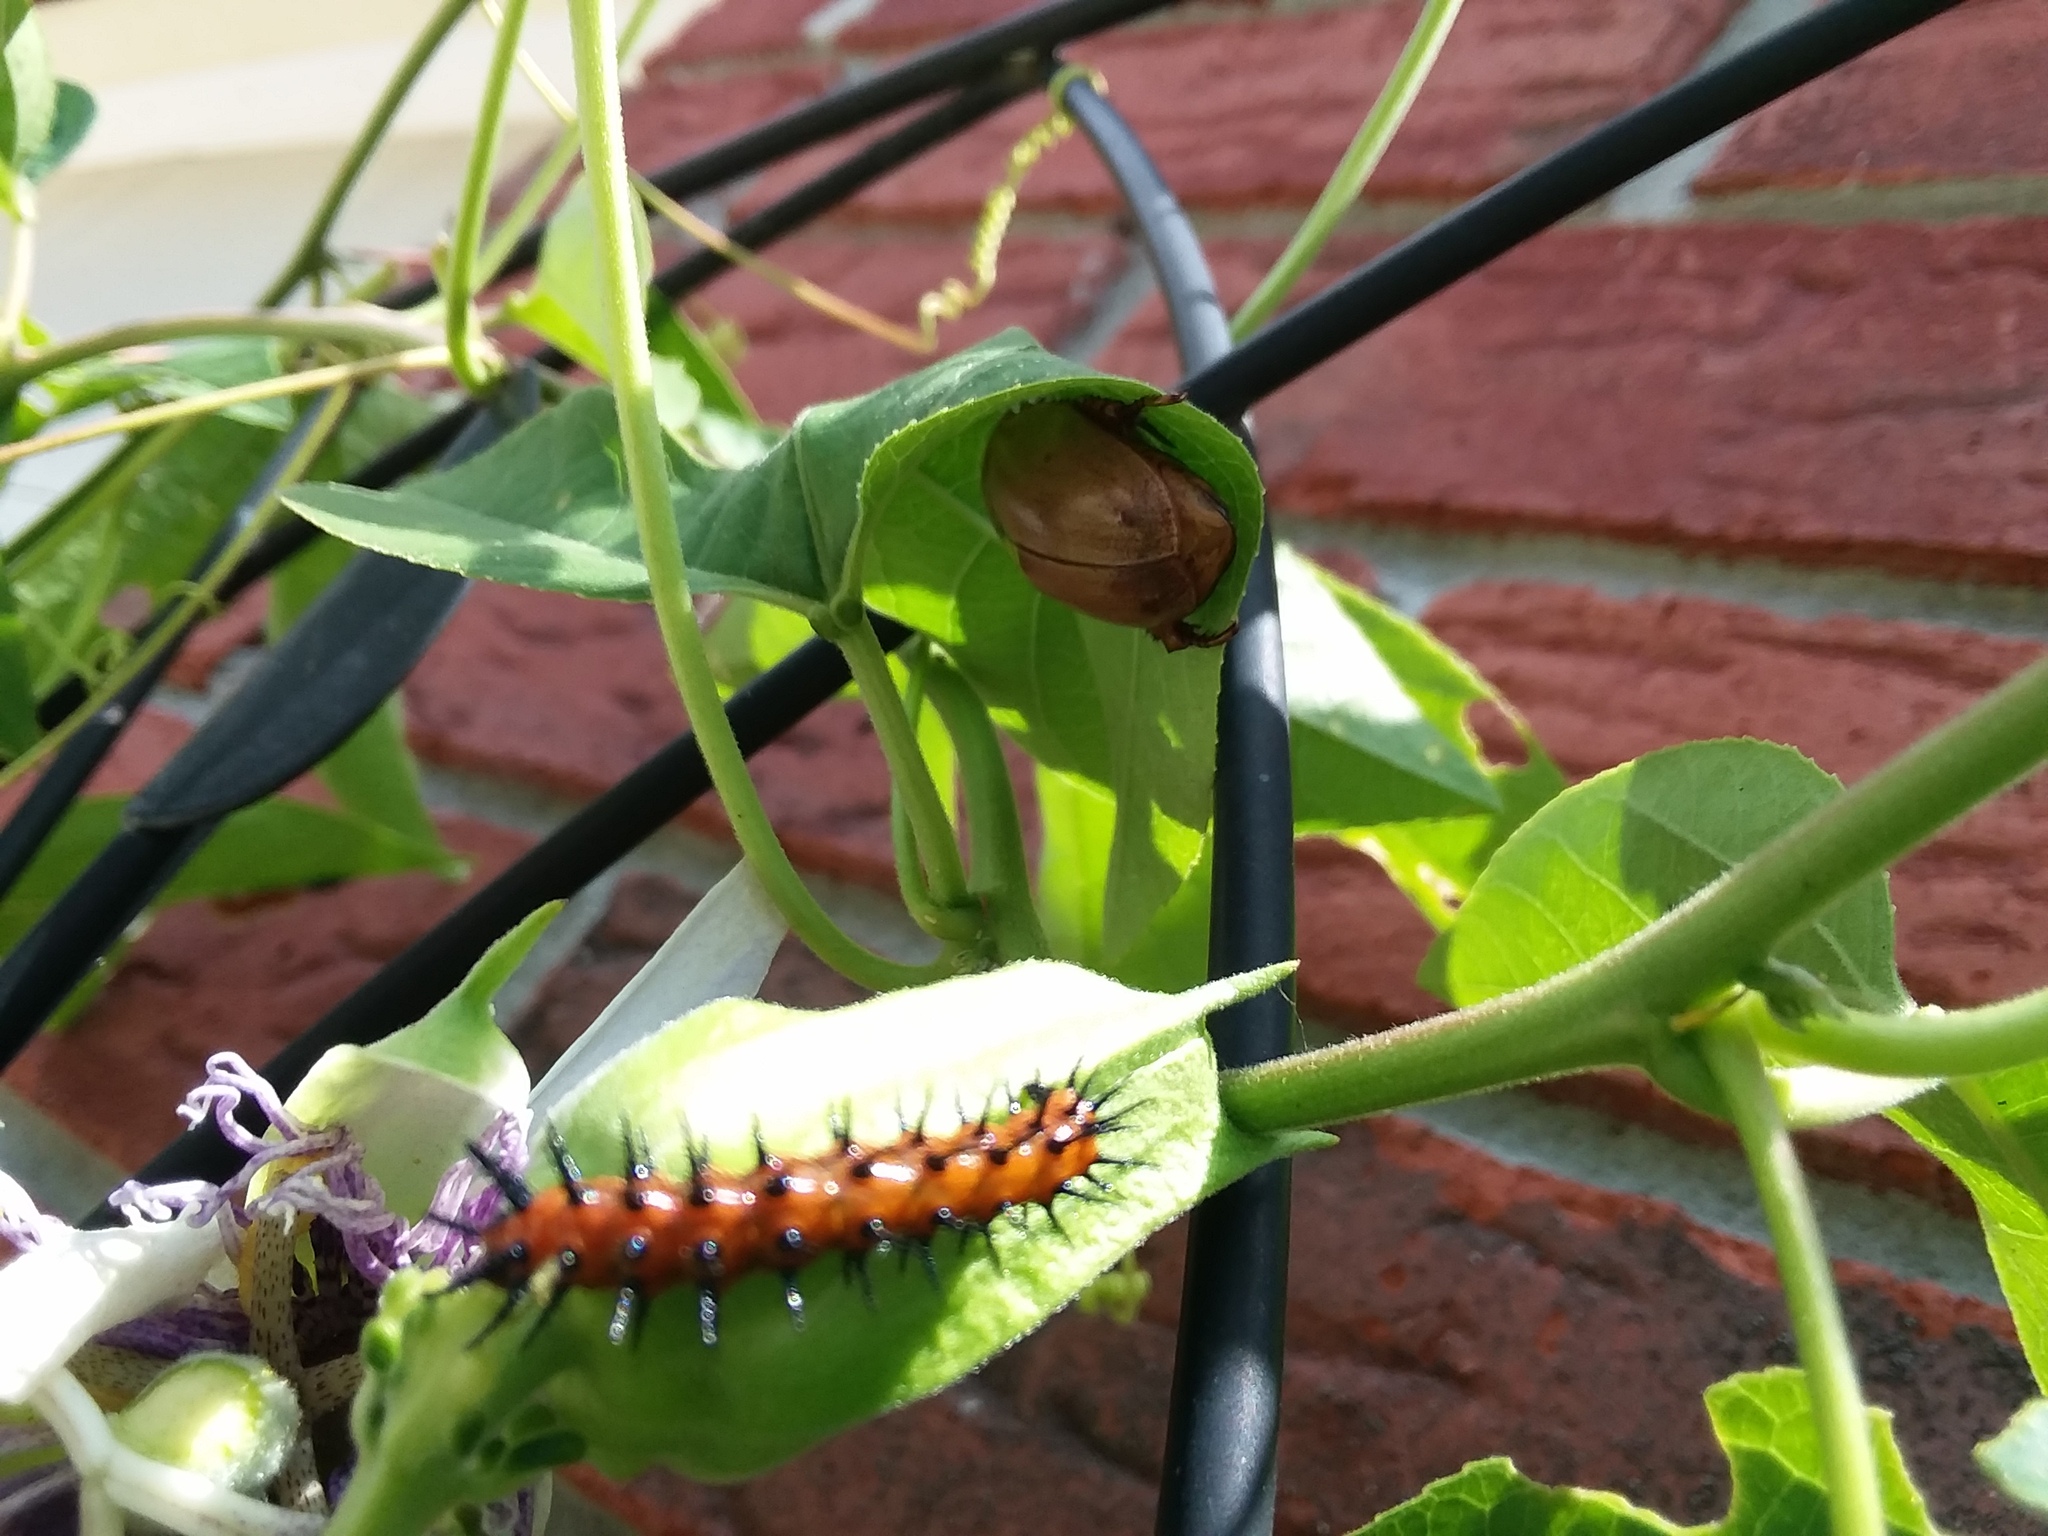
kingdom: Animalia
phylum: Arthropoda
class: Insecta
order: Coleoptera
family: Scarabaeidae
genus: Pelidnota
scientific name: Pelidnota punctata
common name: Grapevine beetle
